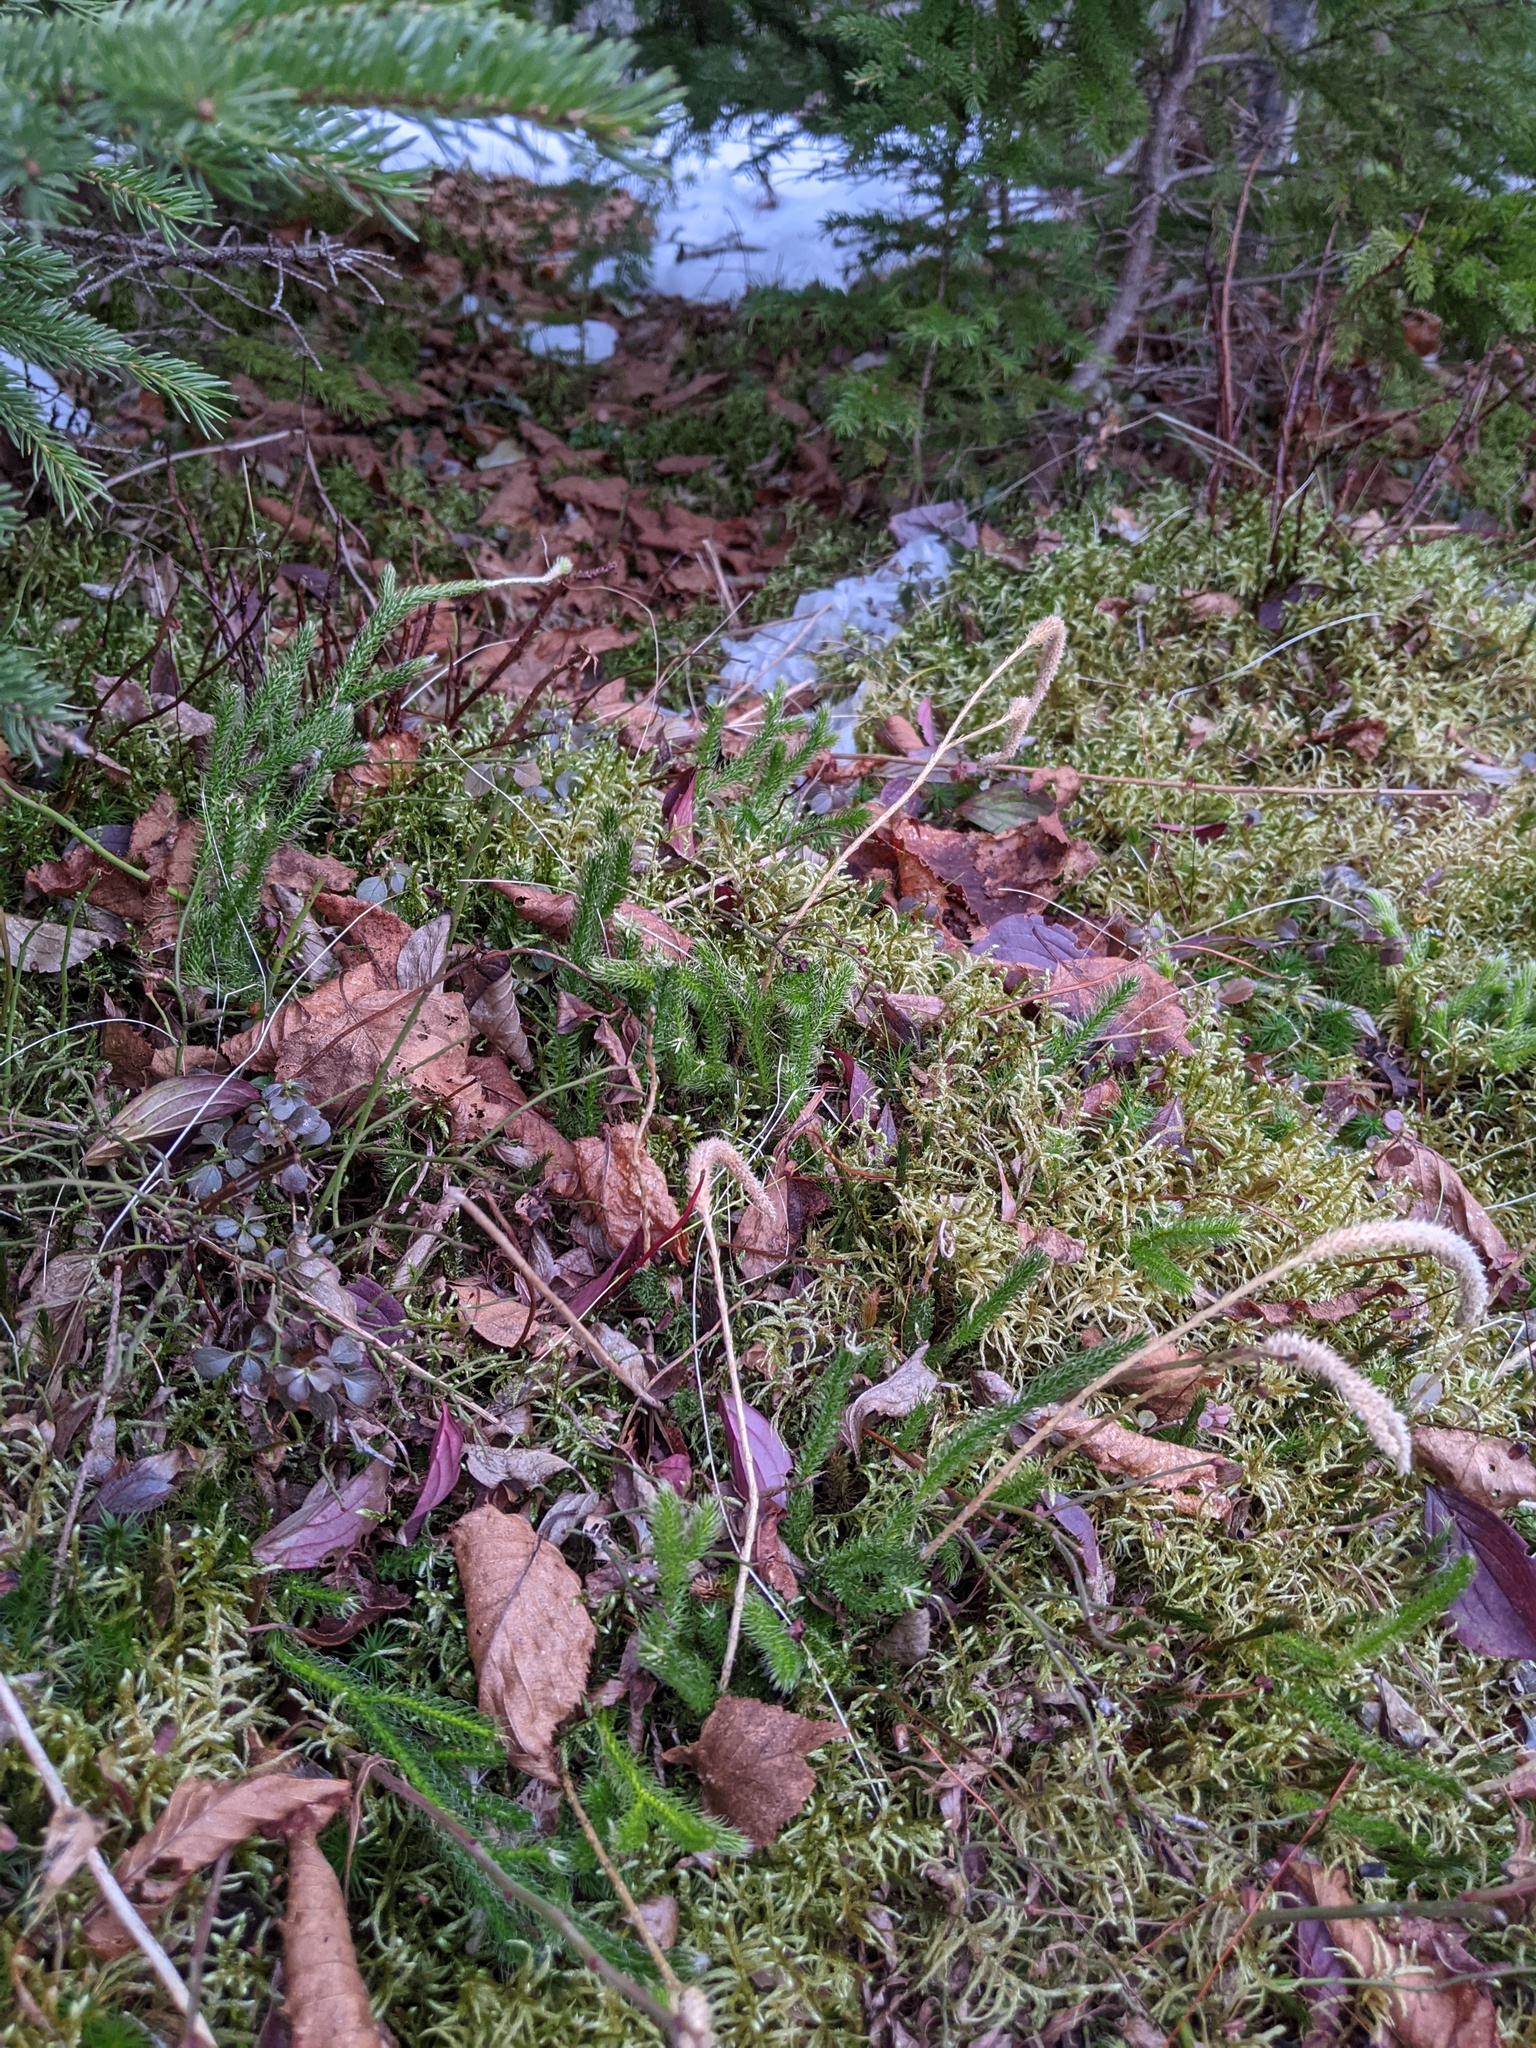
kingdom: Plantae
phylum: Tracheophyta
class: Lycopodiopsida
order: Lycopodiales
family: Lycopodiaceae
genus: Lycopodium
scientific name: Lycopodium lagopus
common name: One-cone clubmoss
